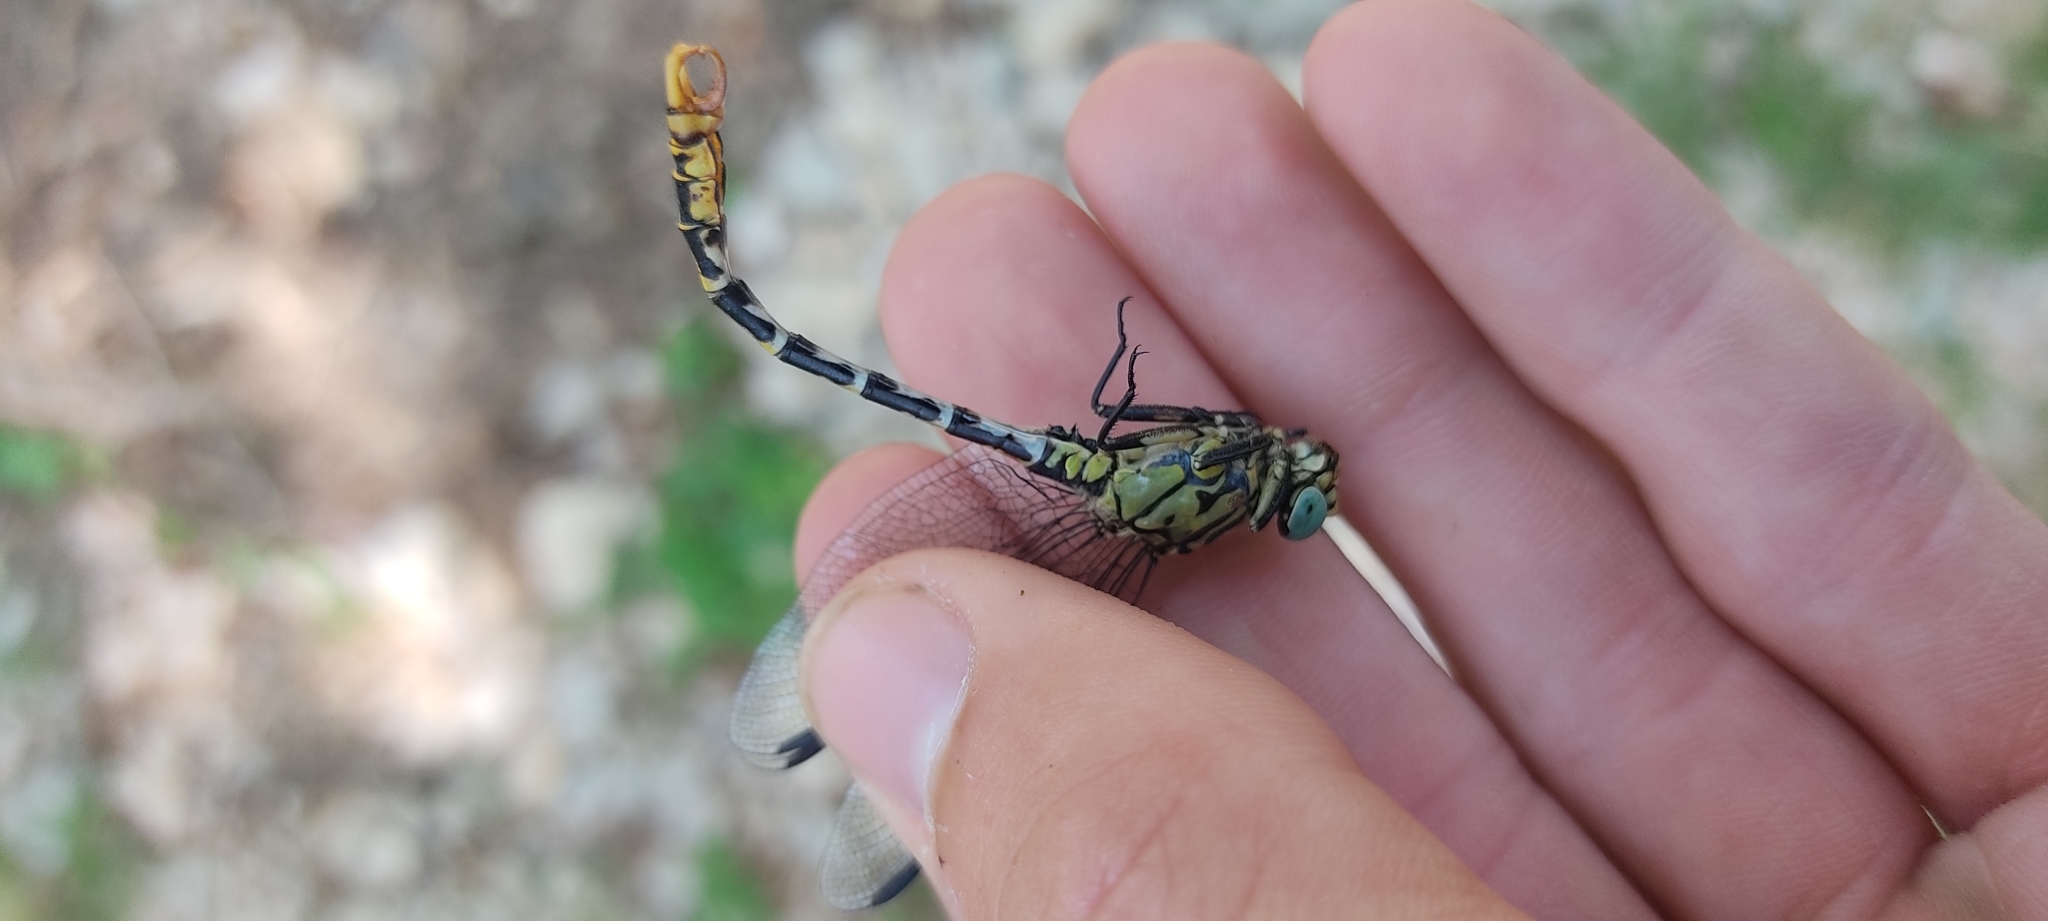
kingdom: Animalia
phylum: Arthropoda
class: Insecta
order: Odonata
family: Gomphidae
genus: Onychogomphus
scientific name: Onychogomphus forcipatus
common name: Small pincertail
